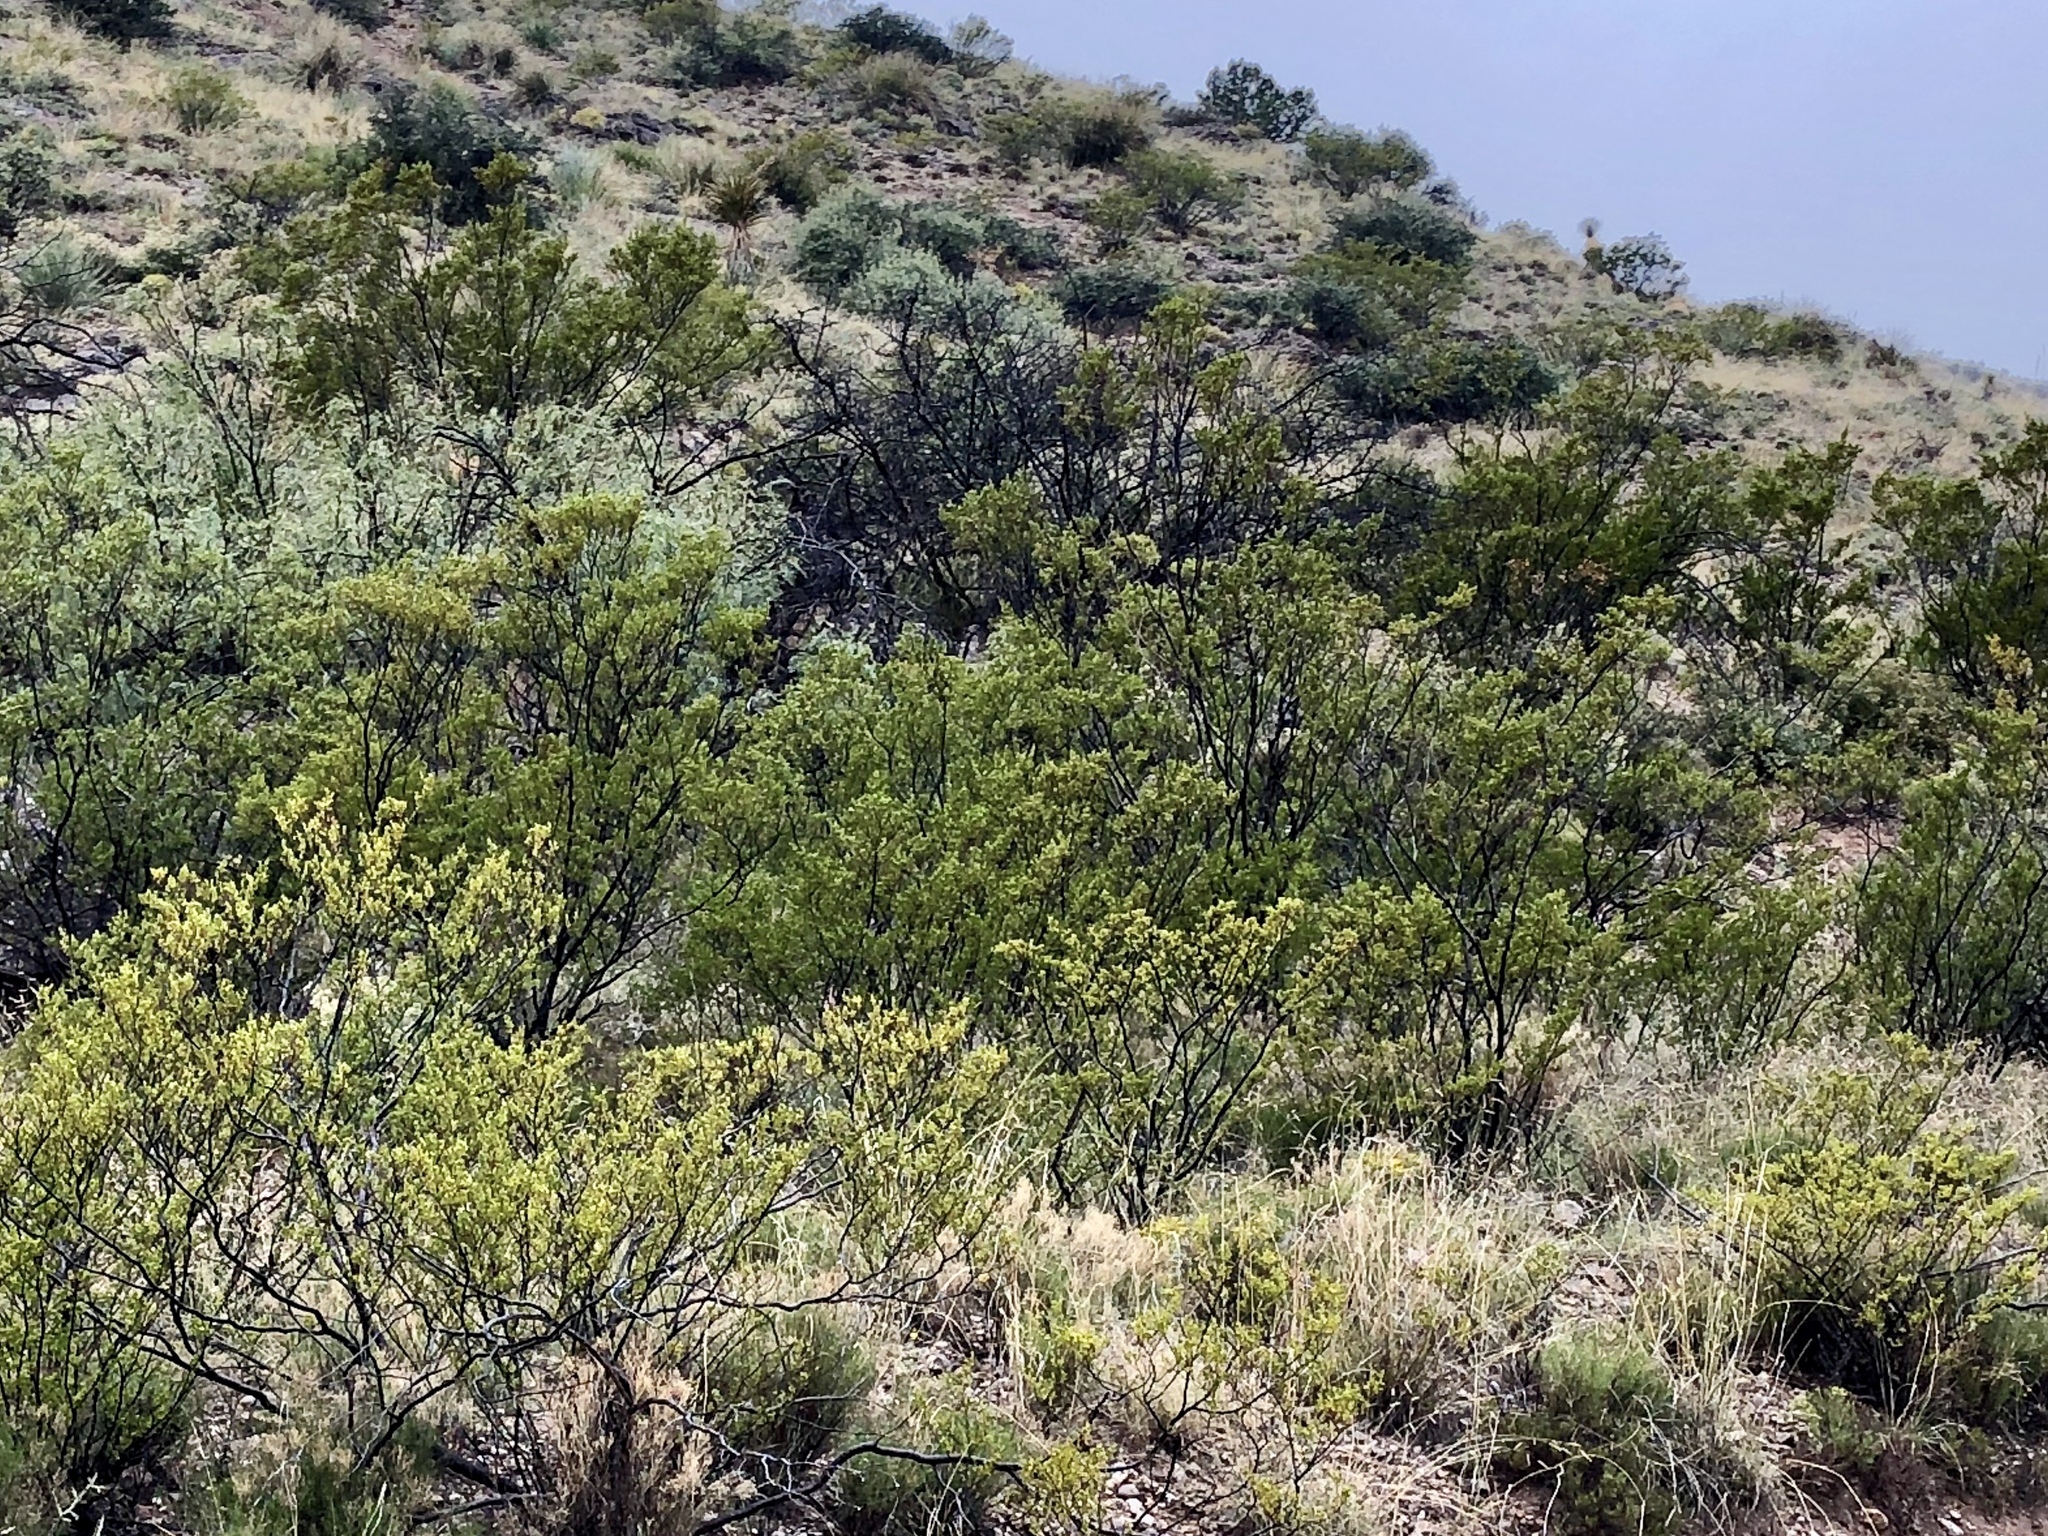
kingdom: Plantae
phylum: Tracheophyta
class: Magnoliopsida
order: Zygophyllales
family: Zygophyllaceae
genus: Larrea
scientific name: Larrea tridentata
